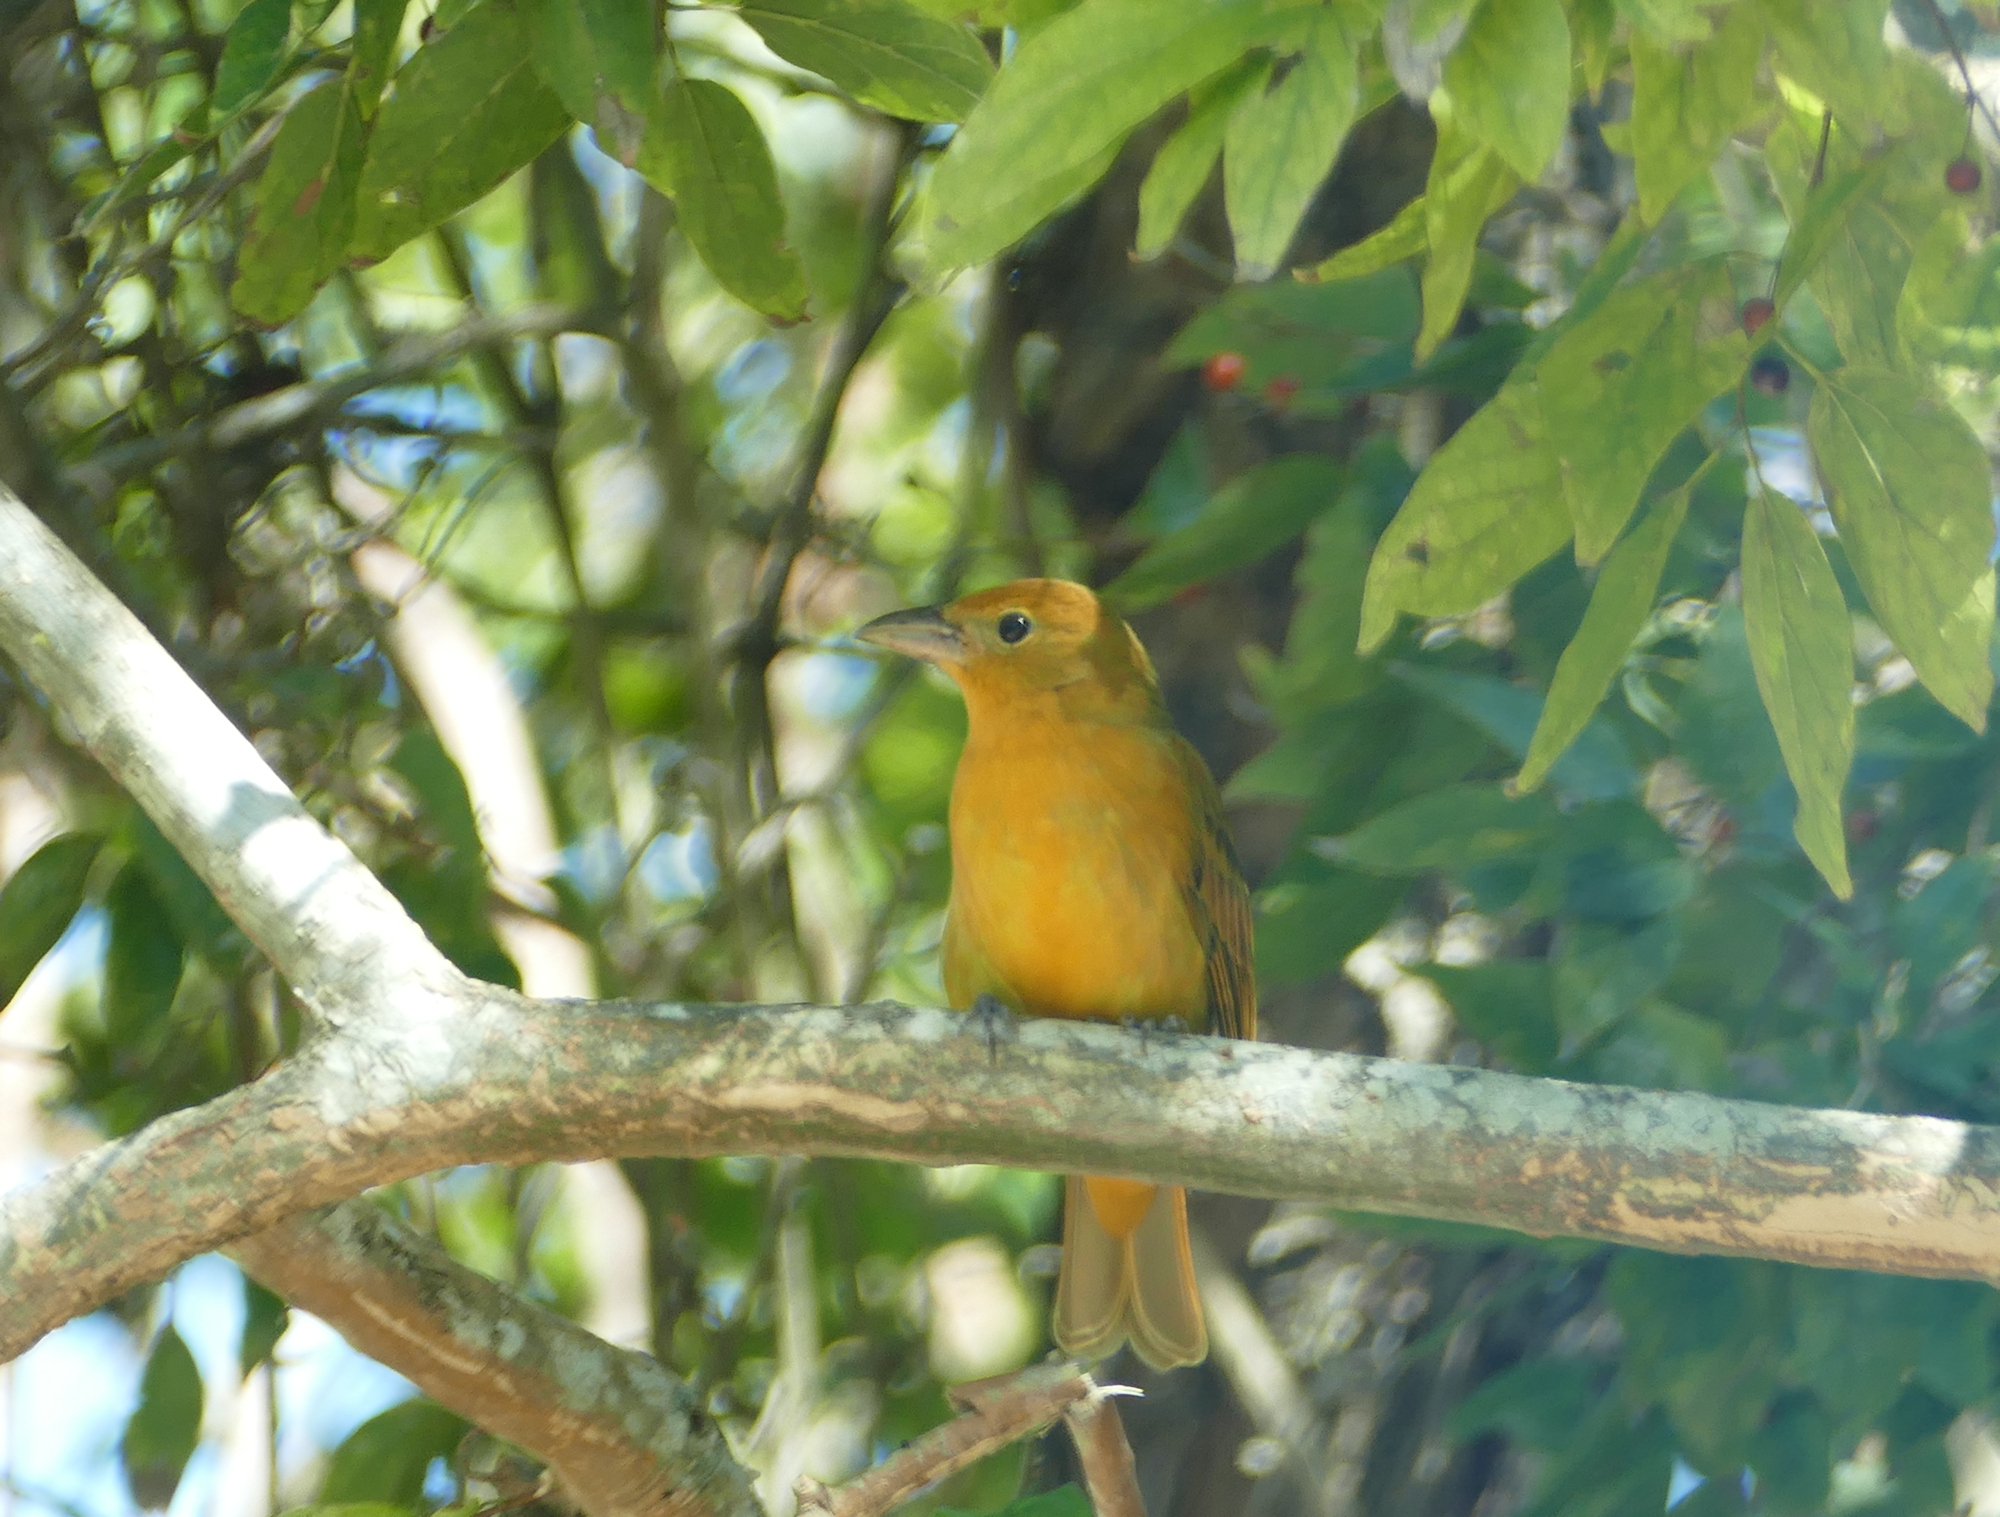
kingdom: Animalia
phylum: Chordata
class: Aves
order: Passeriformes
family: Cardinalidae
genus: Piranga
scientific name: Piranga rubra
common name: Summer tanager
